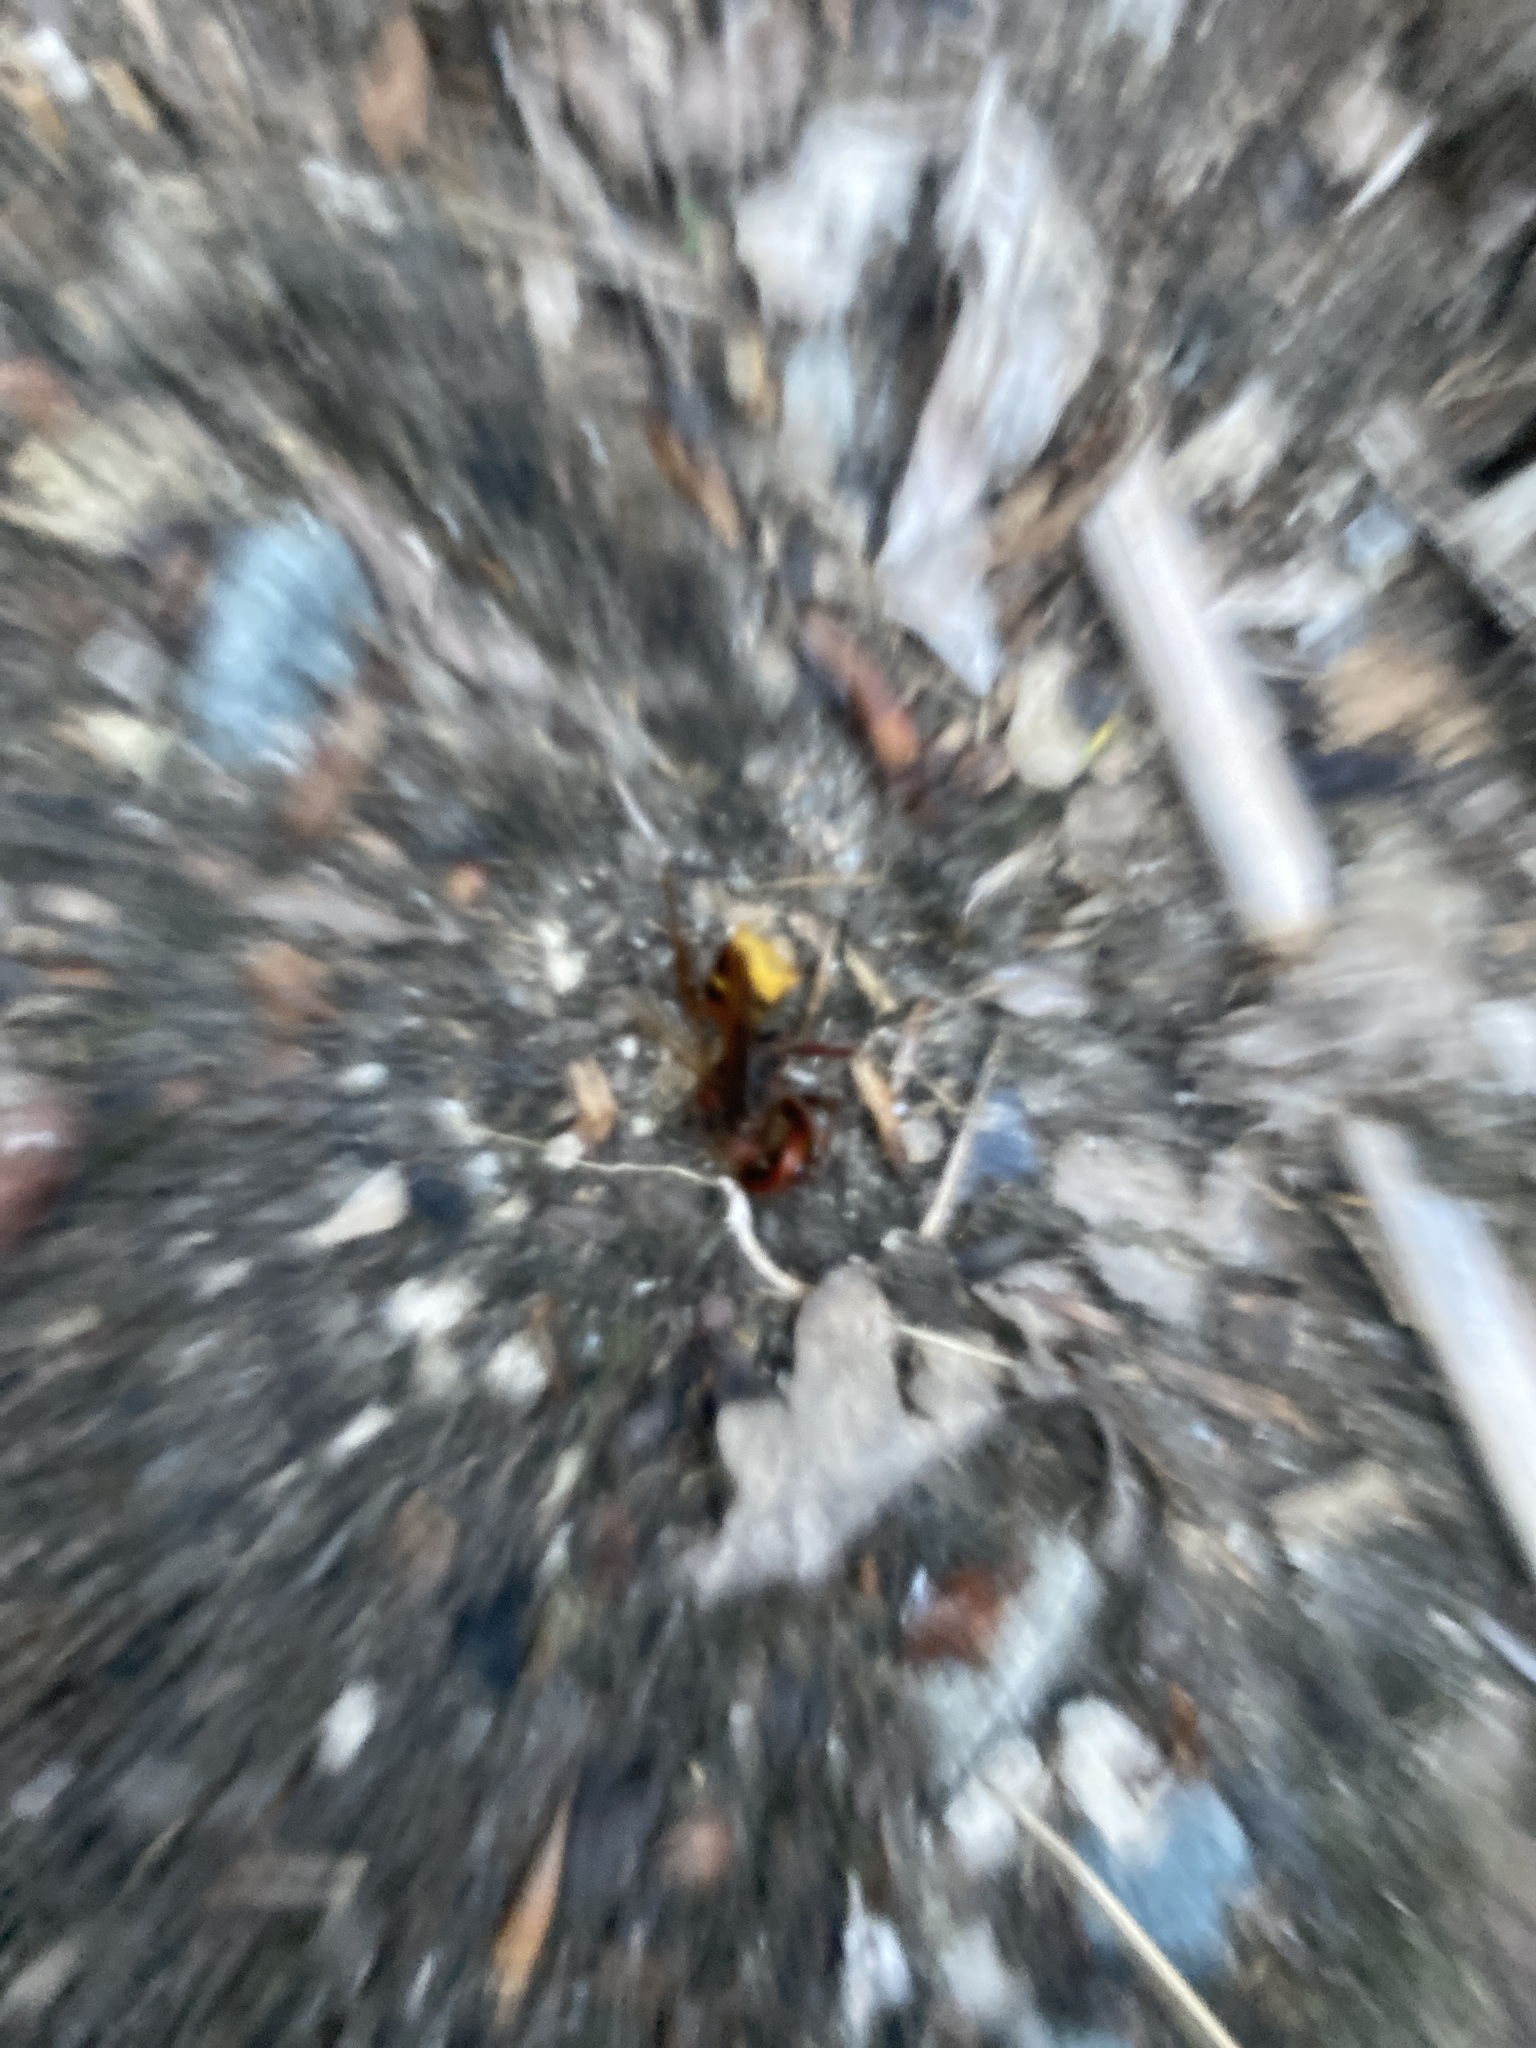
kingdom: Animalia
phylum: Arthropoda
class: Insecta
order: Hymenoptera
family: Vespidae
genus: Vespa
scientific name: Vespa crabro
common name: Hornet
